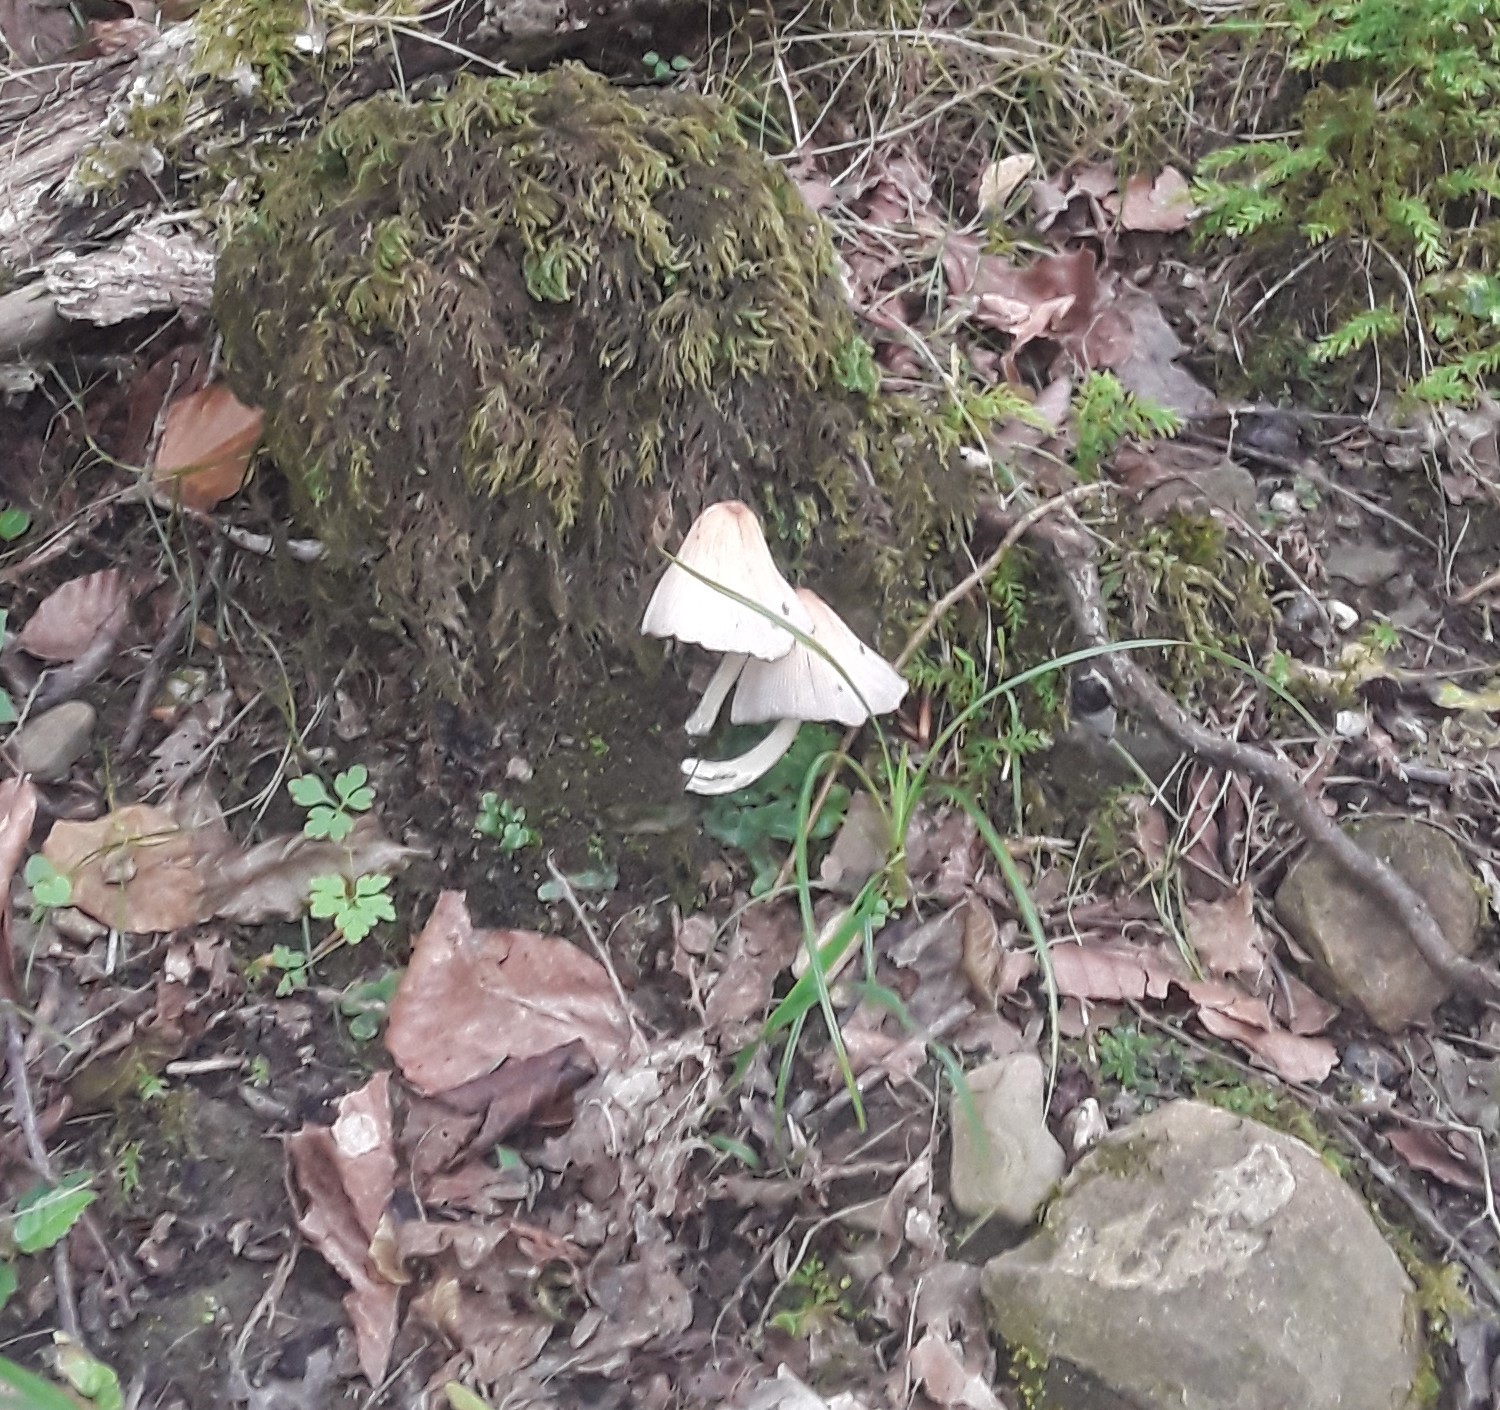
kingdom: Fungi
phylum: Basidiomycota
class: Agaricomycetes
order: Agaricales
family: Mycenaceae
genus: Mycena
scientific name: Mycena
